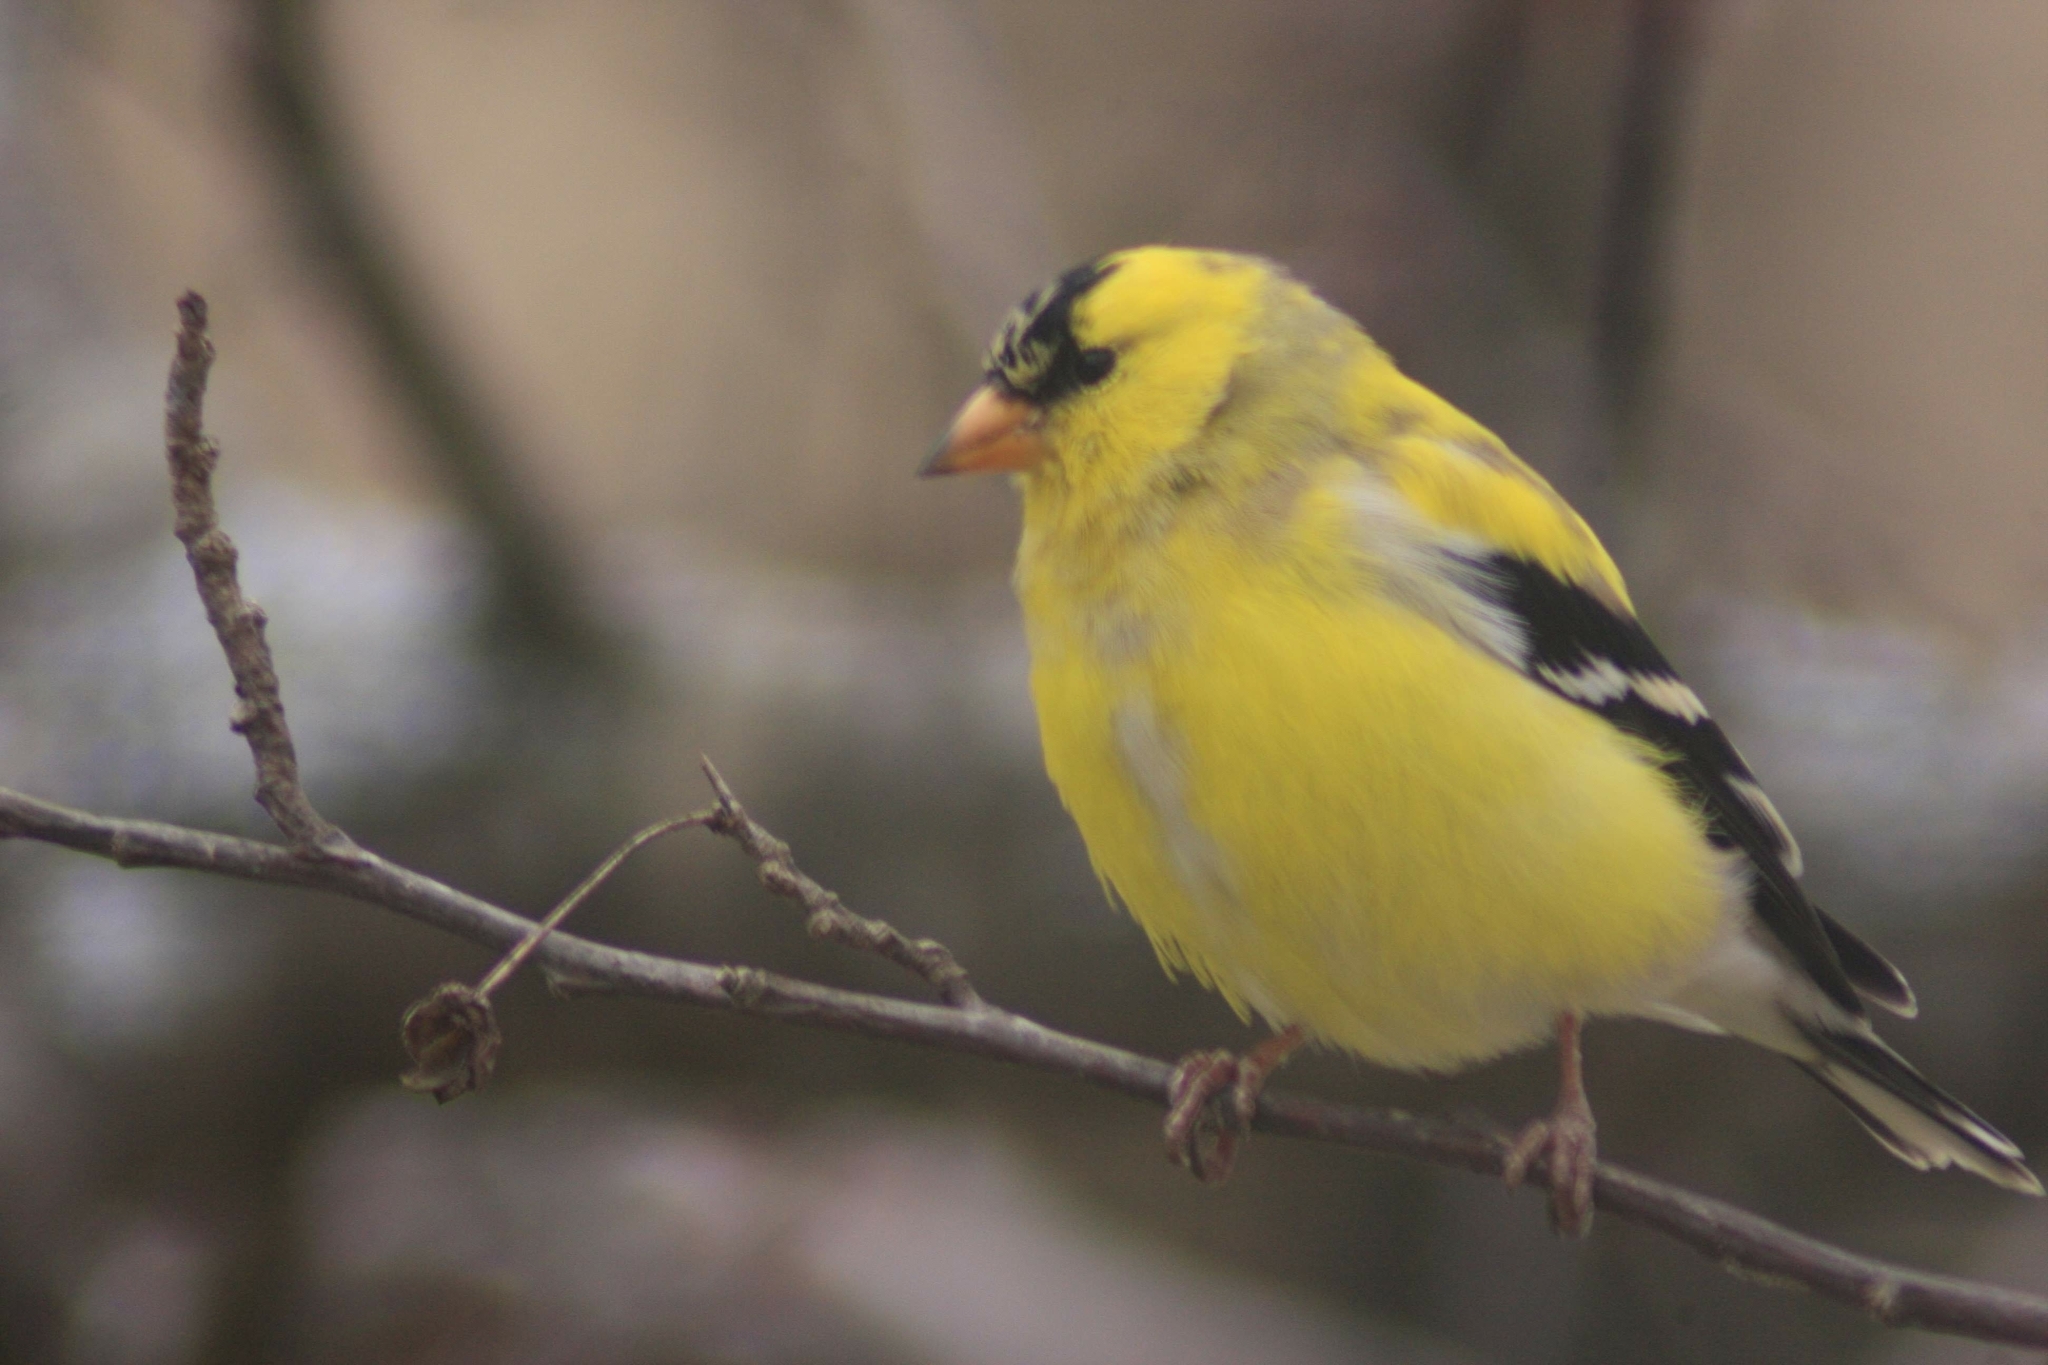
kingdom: Animalia
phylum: Chordata
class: Aves
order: Passeriformes
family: Fringillidae
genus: Spinus
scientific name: Spinus tristis
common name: American goldfinch
